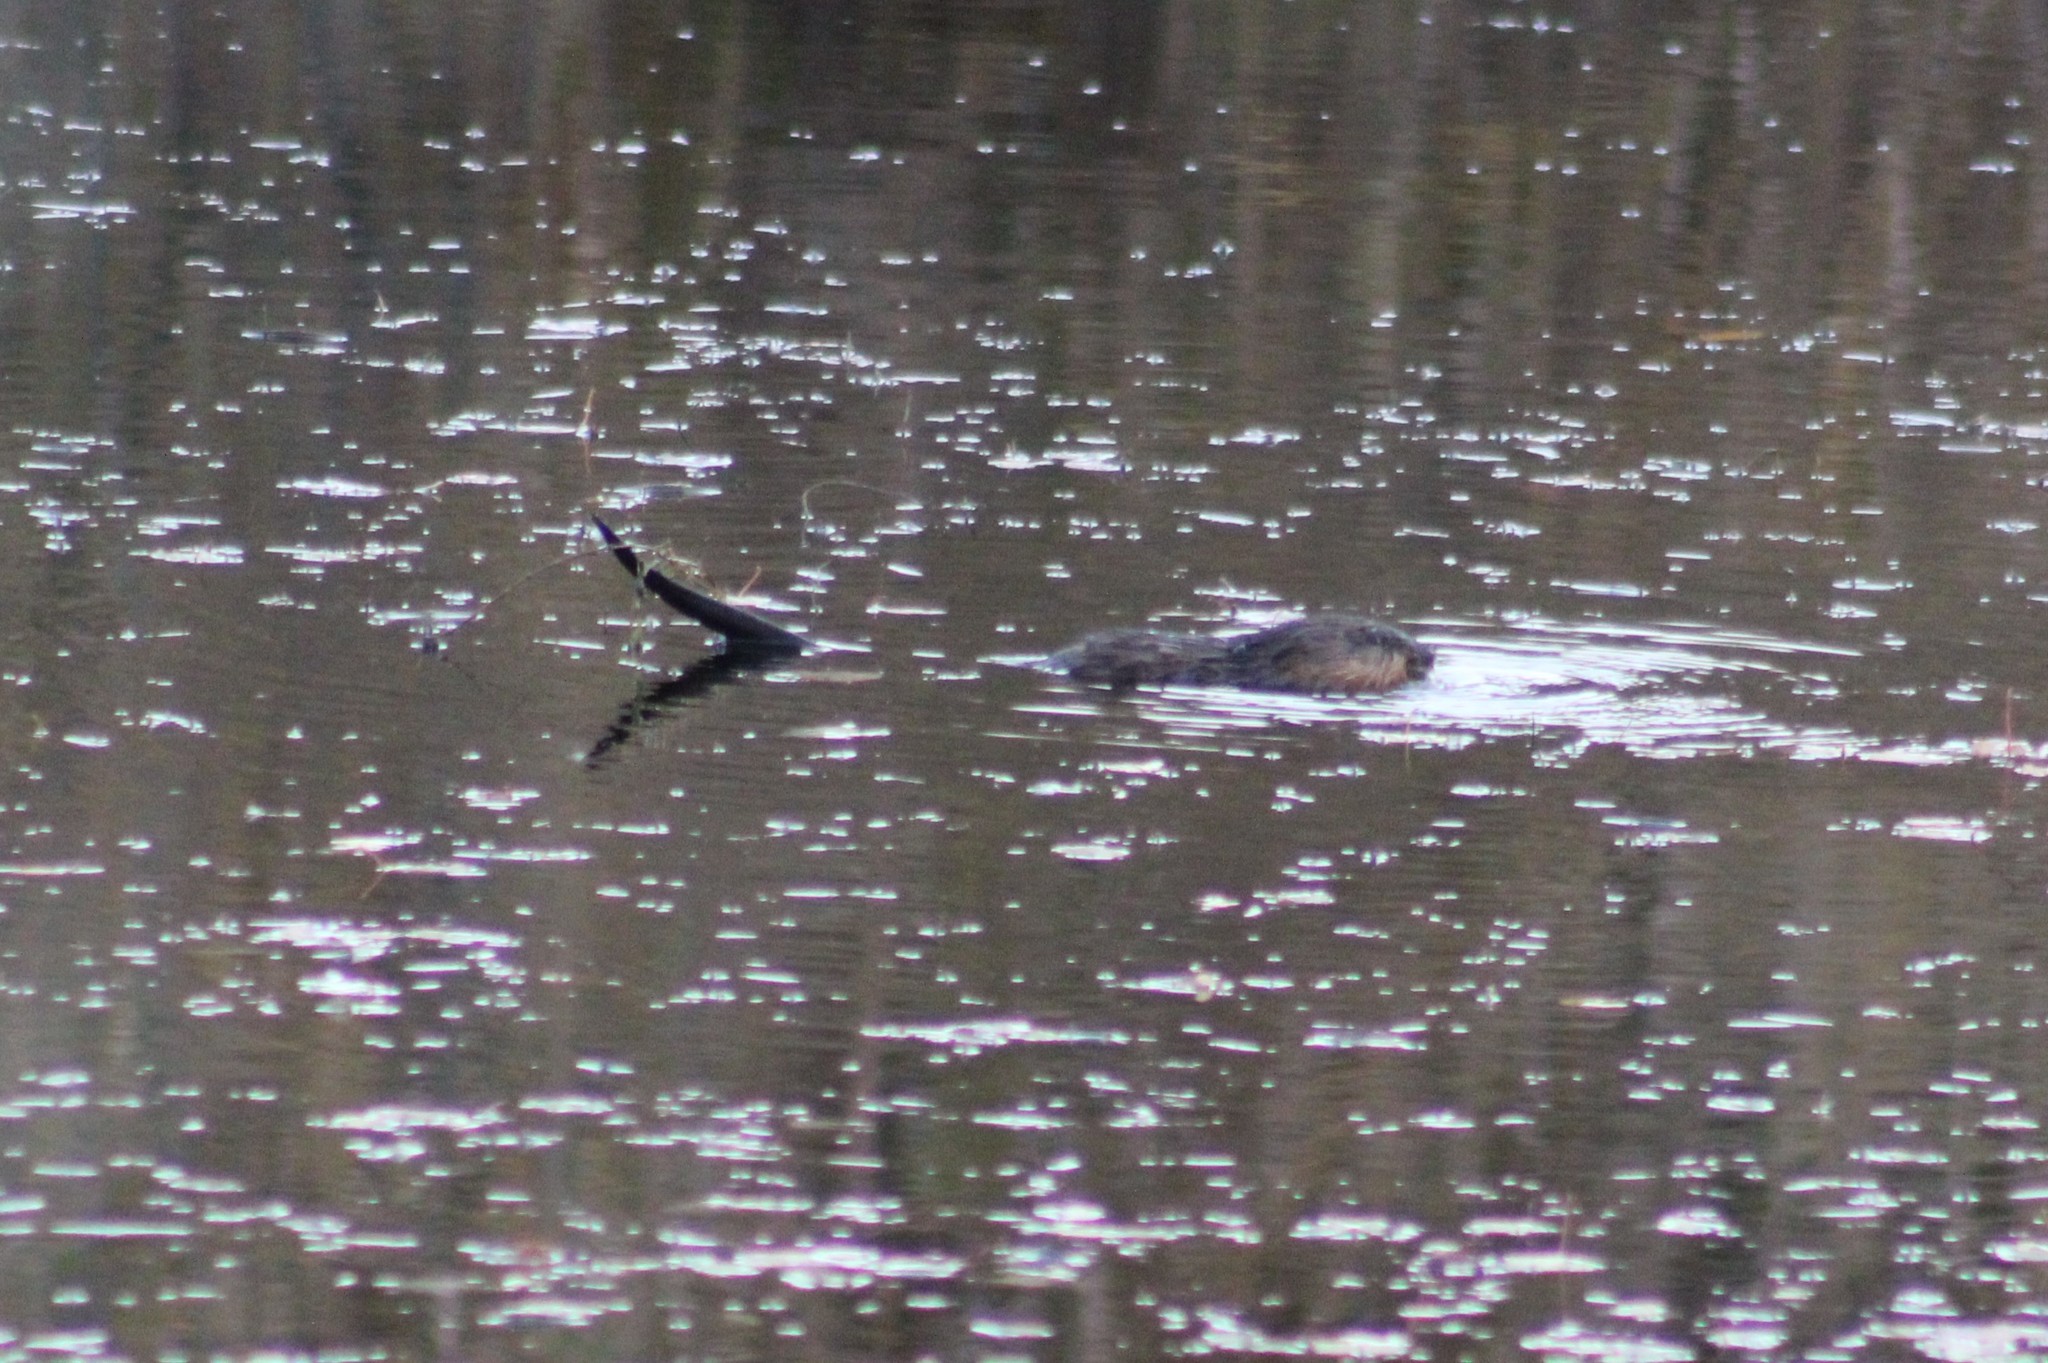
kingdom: Animalia
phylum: Chordata
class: Mammalia
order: Rodentia
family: Cricetidae
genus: Ondatra
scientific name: Ondatra zibethicus
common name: Muskrat
